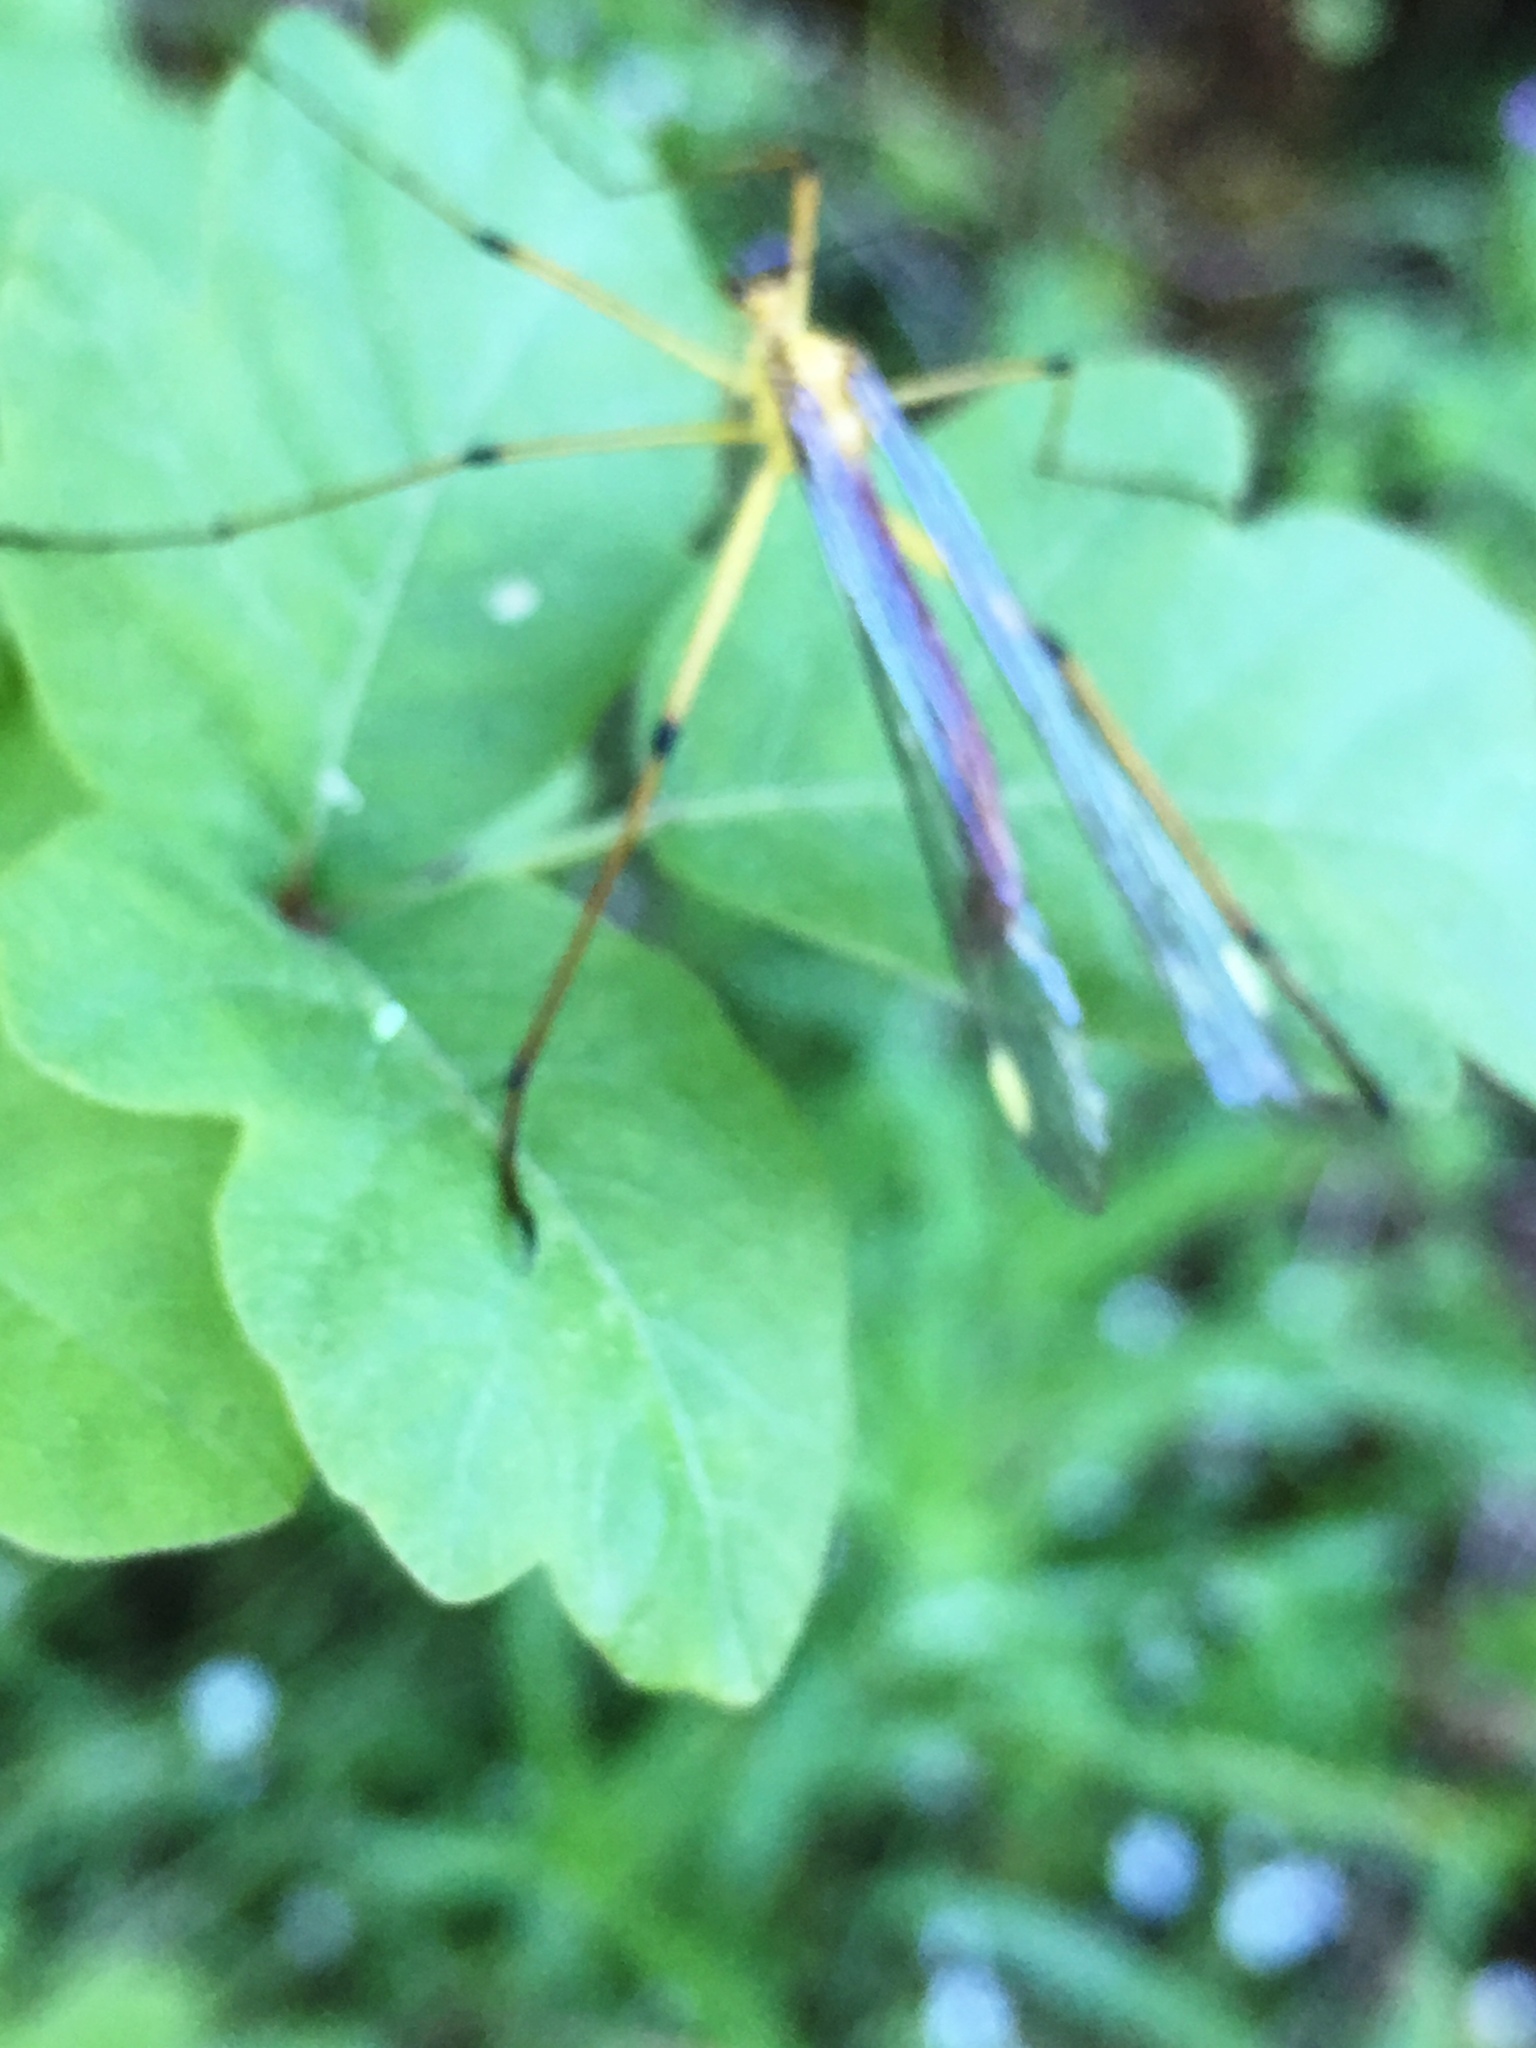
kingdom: Animalia
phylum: Arthropoda
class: Insecta
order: Mecoptera
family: Bittacidae
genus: Bittacus
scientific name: Bittacus chlorostigma
